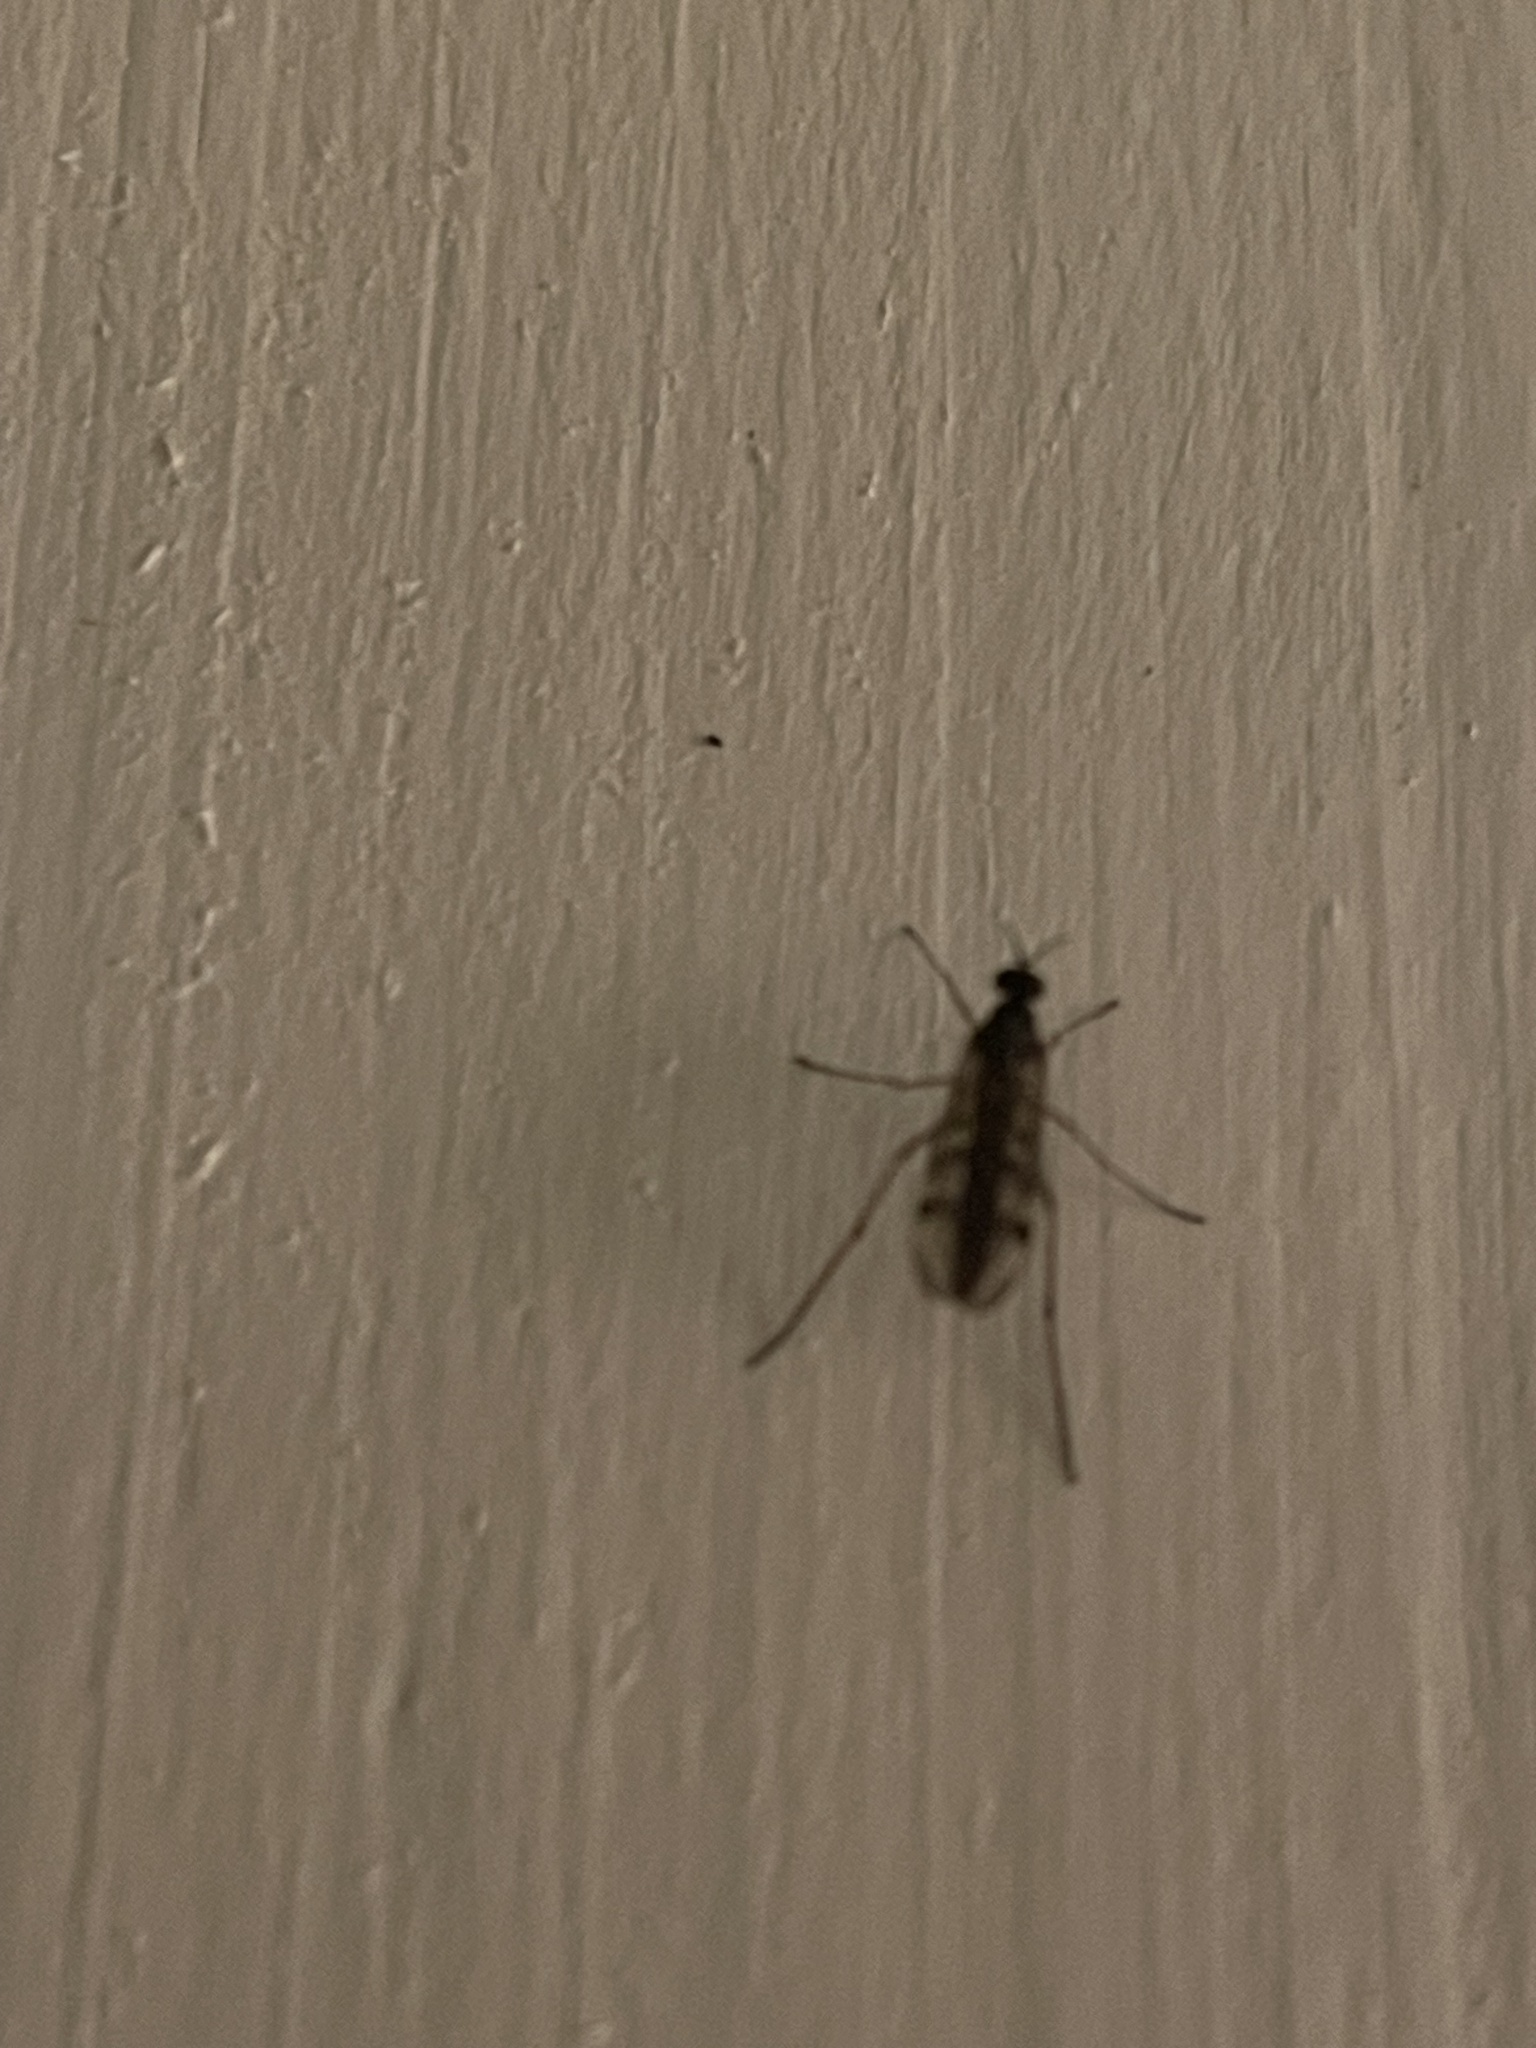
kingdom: Animalia
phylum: Arthropoda
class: Insecta
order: Diptera
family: Anisopodidae
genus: Sylvicola
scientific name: Sylvicola punctatus
